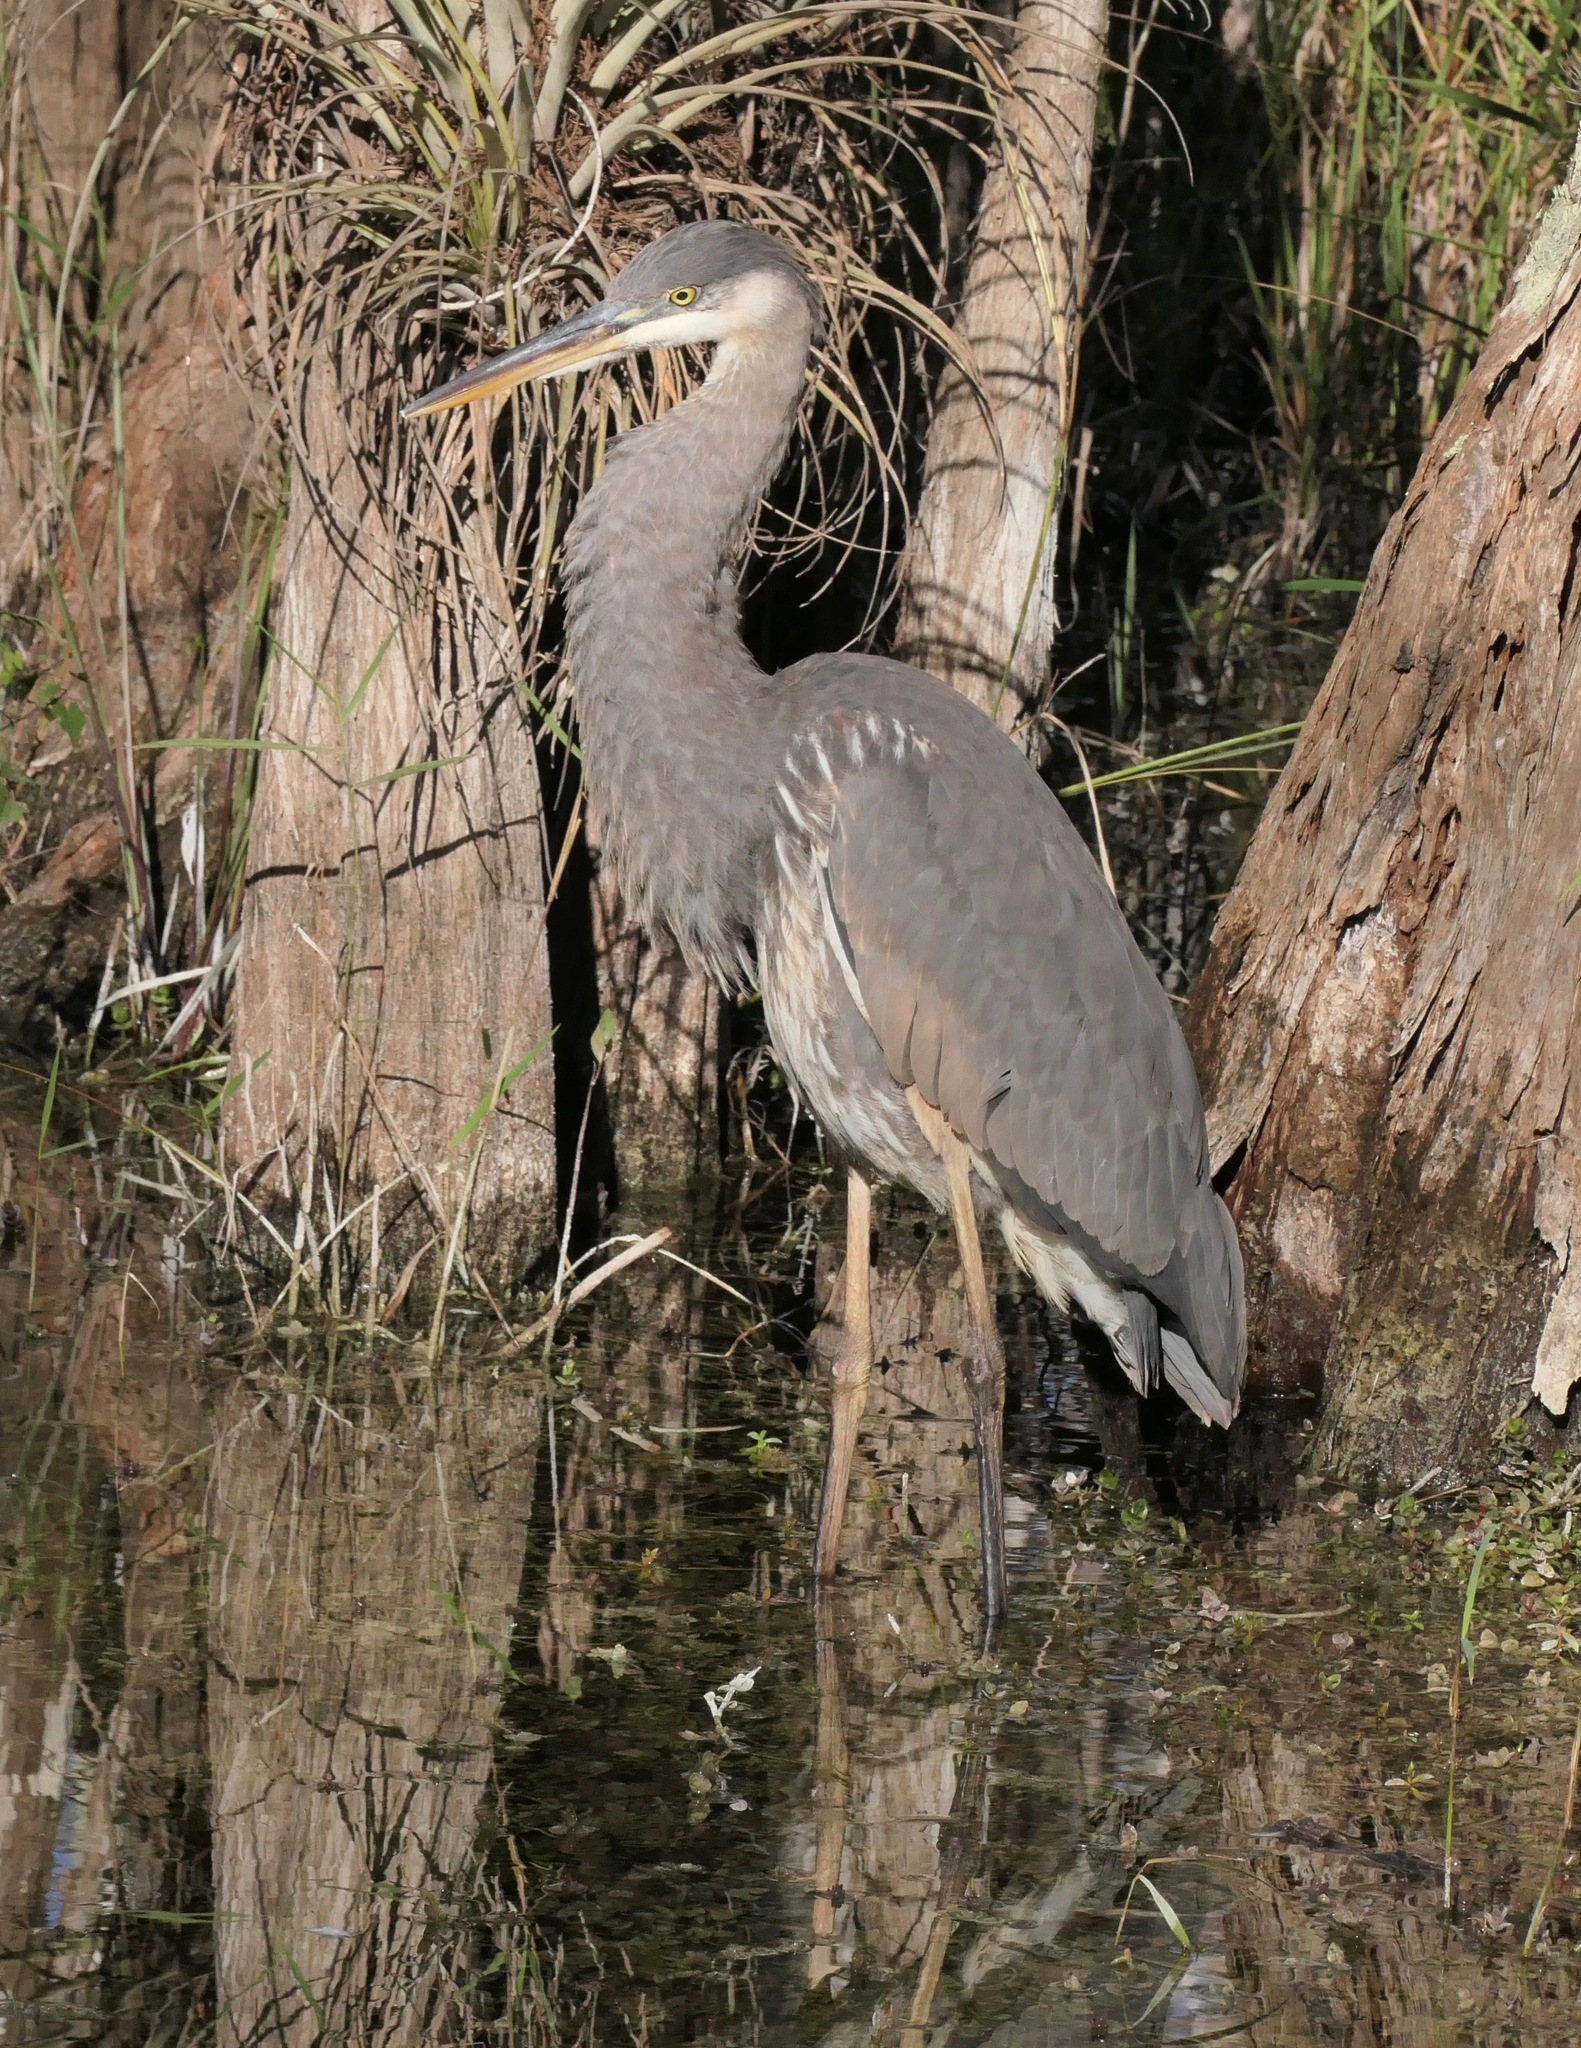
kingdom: Animalia
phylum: Chordata
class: Aves
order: Pelecaniformes
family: Ardeidae
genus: Ardea
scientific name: Ardea herodias
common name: Great blue heron
